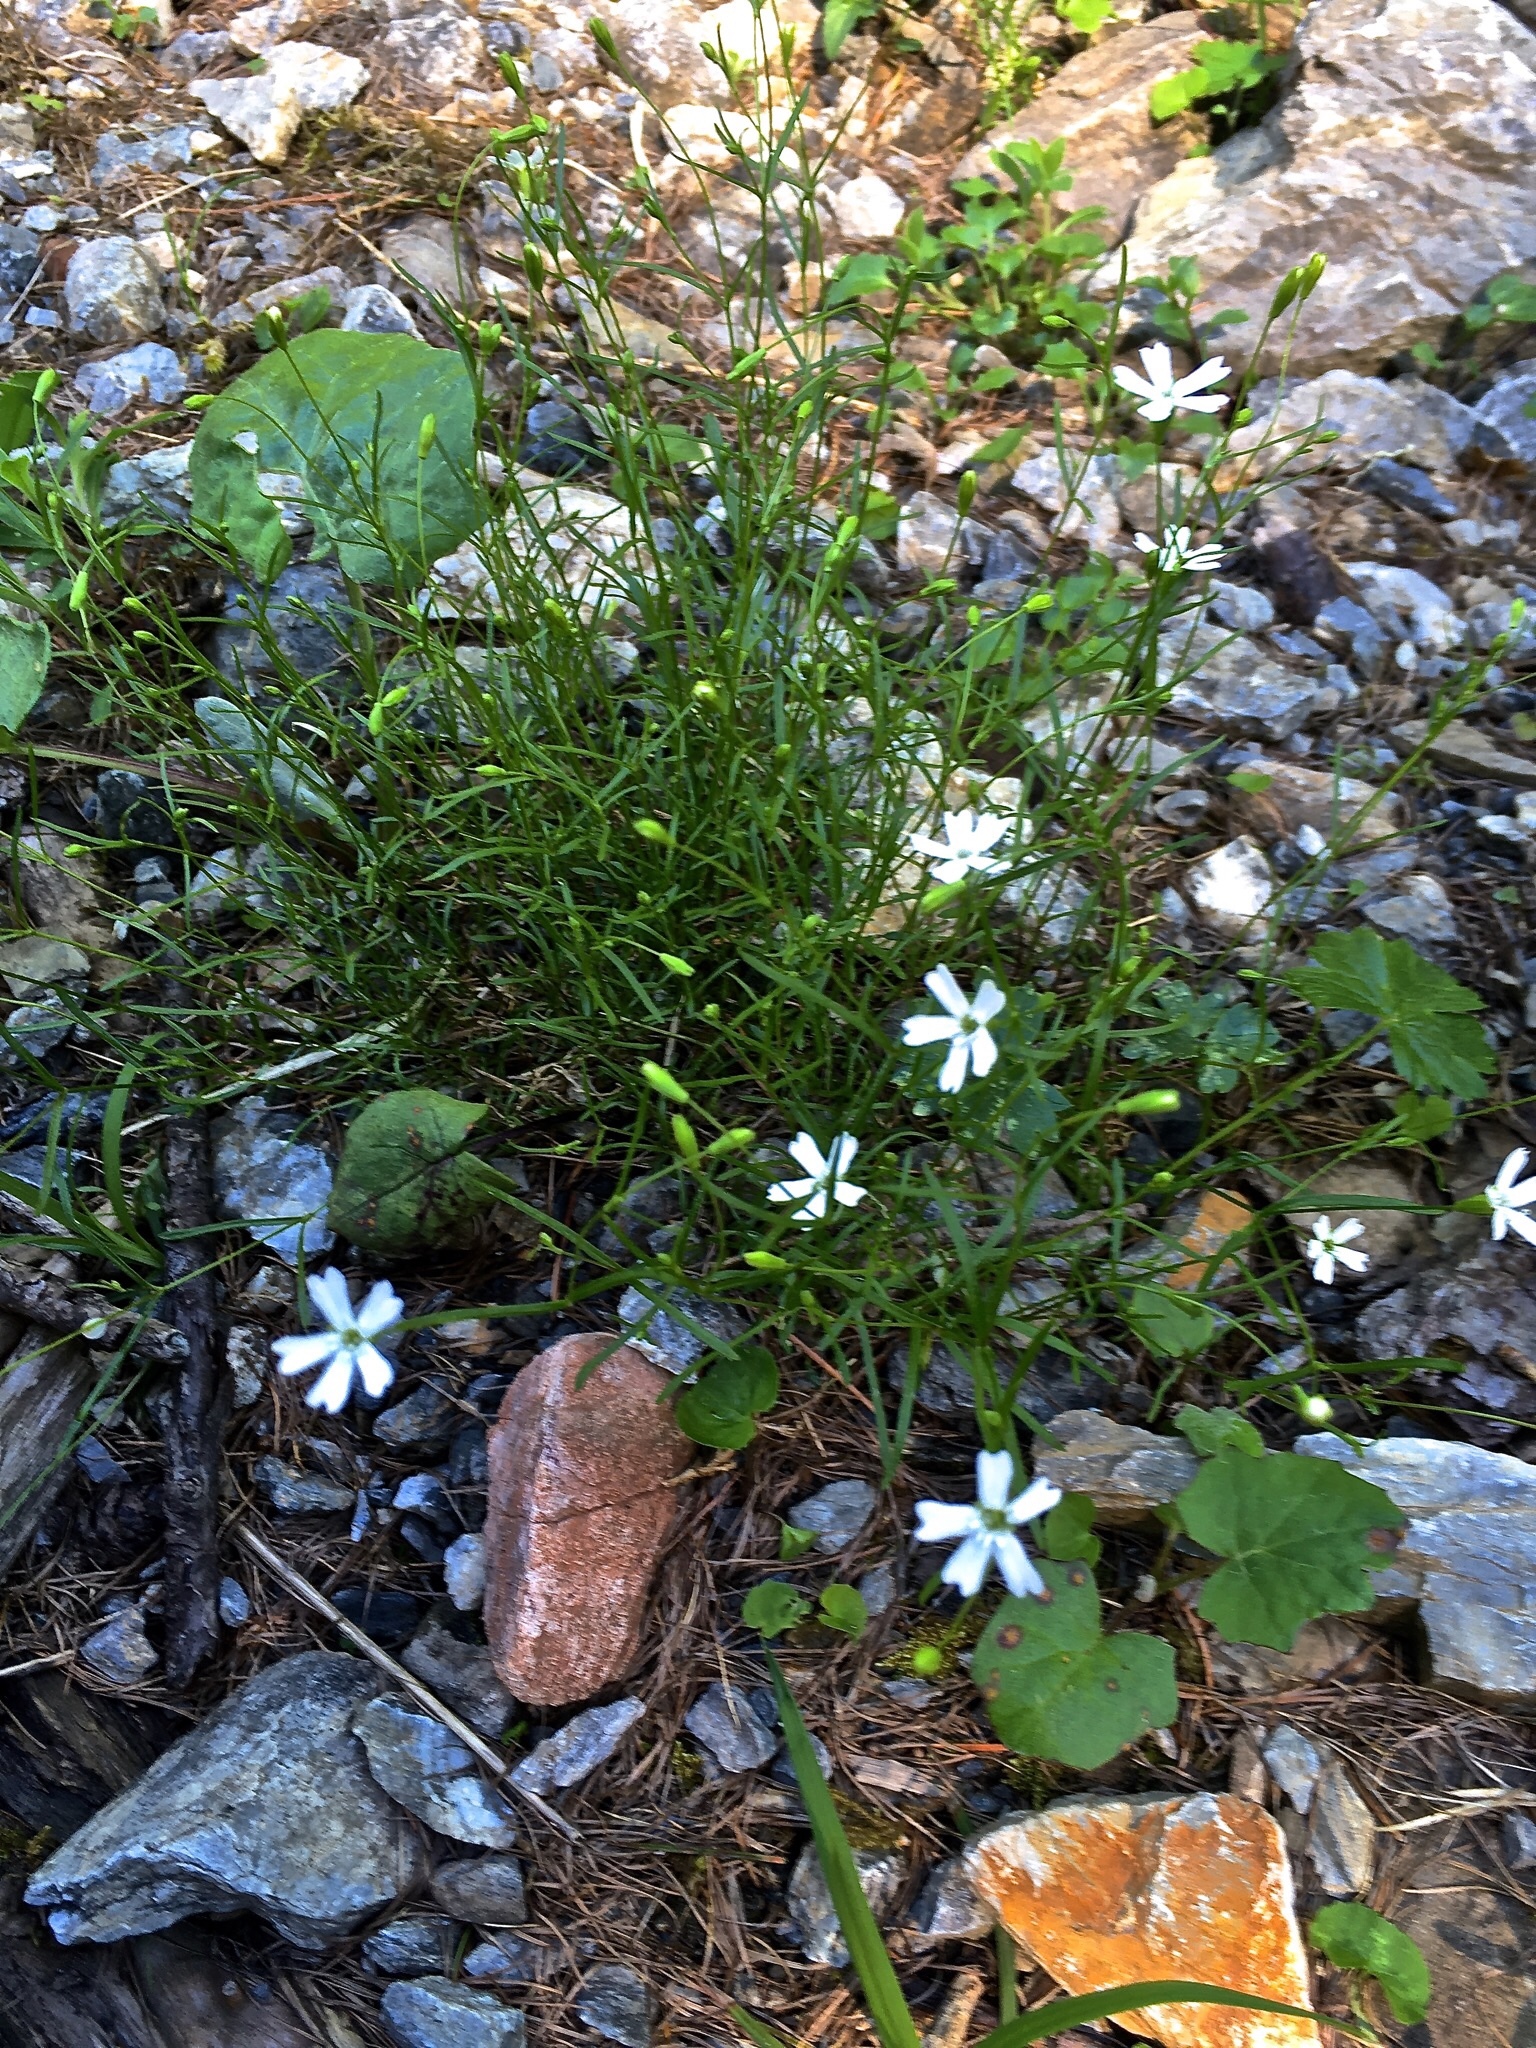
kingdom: Plantae
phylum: Tracheophyta
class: Magnoliopsida
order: Caryophyllales
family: Caryophyllaceae
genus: Heliosperma
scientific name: Heliosperma pusillum
